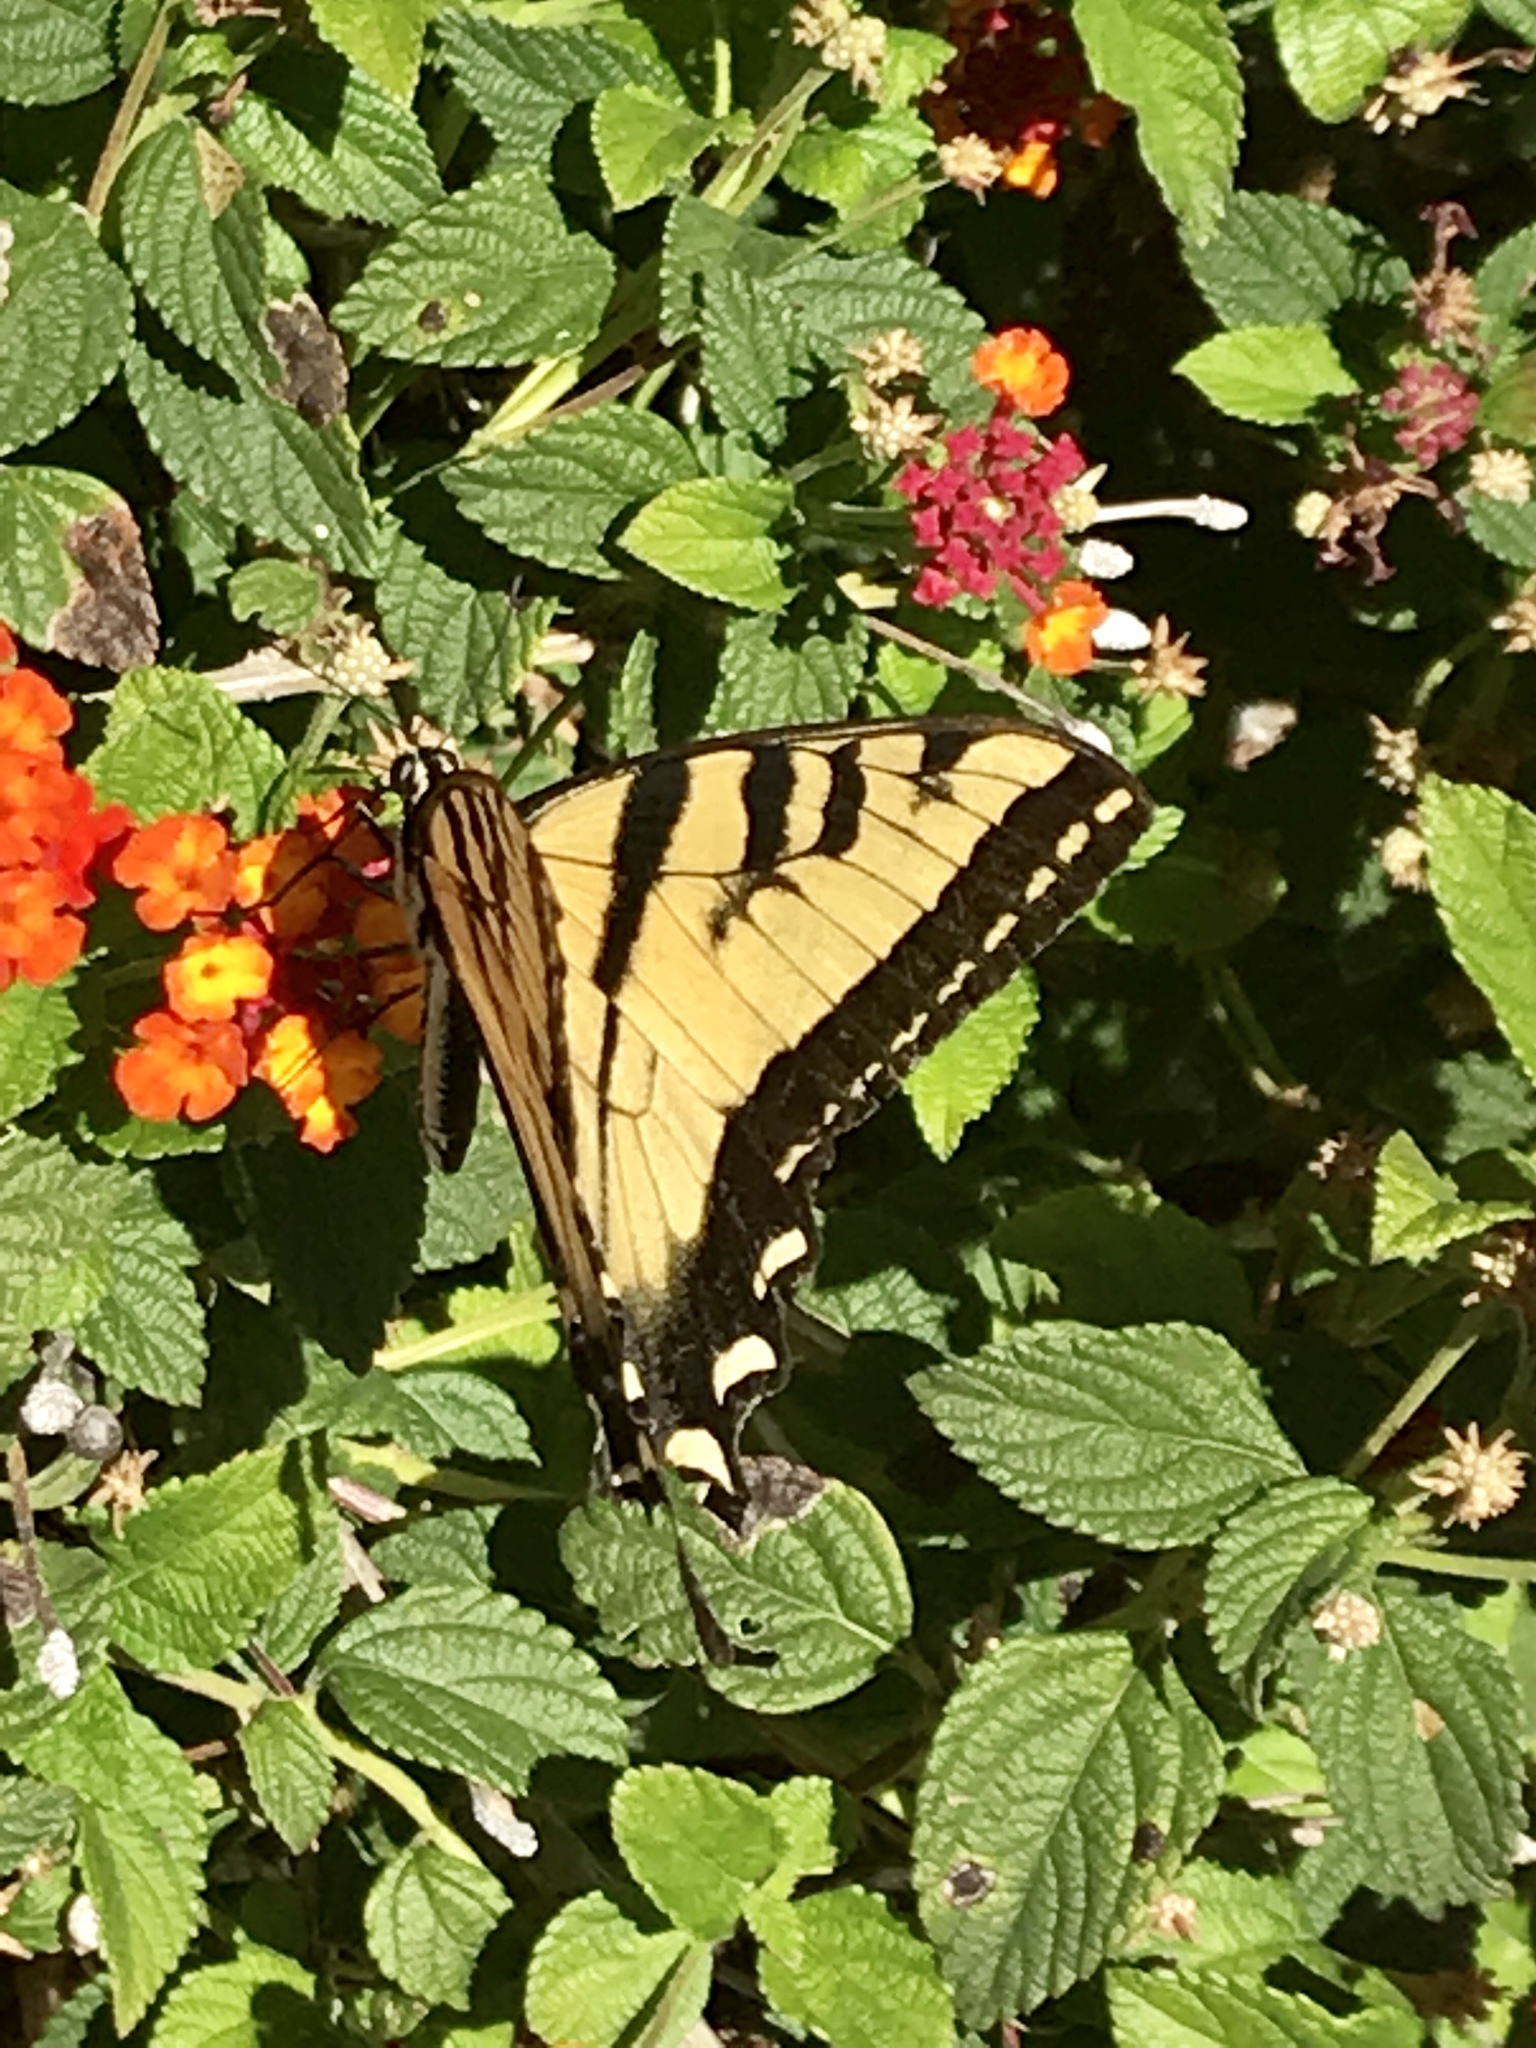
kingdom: Animalia
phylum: Arthropoda
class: Insecta
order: Lepidoptera
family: Papilionidae
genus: Papilio
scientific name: Papilio rutulus
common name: Western tiger swallowtail
